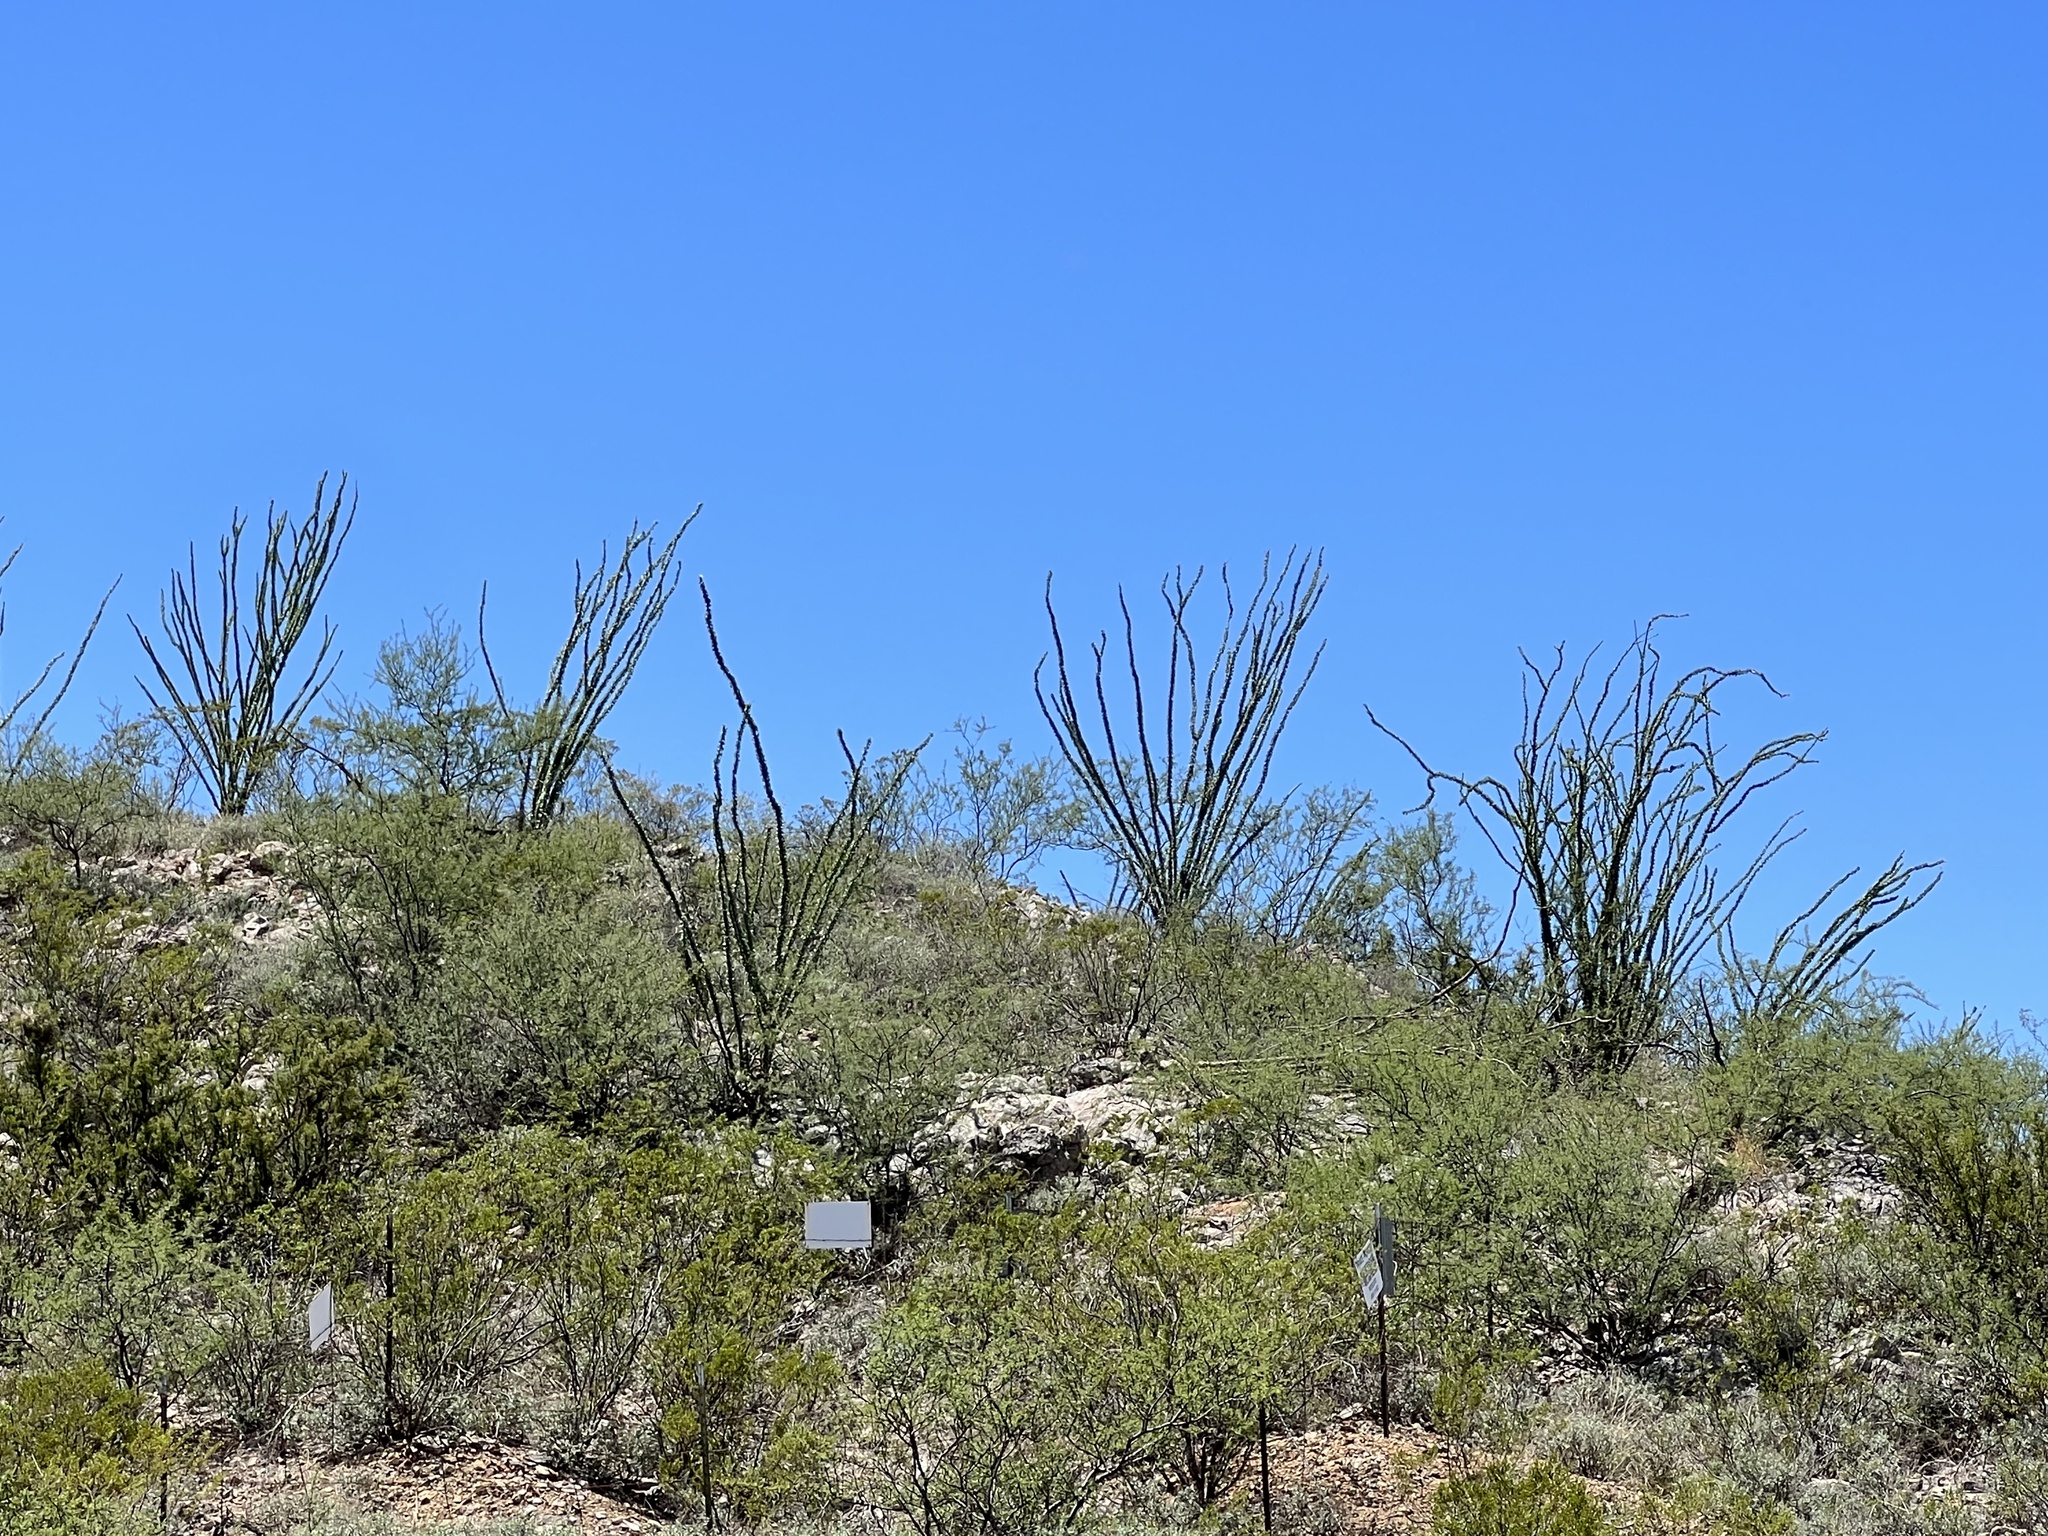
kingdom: Plantae
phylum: Tracheophyta
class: Magnoliopsida
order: Ericales
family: Fouquieriaceae
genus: Fouquieria
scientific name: Fouquieria splendens
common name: Vine-cactus
